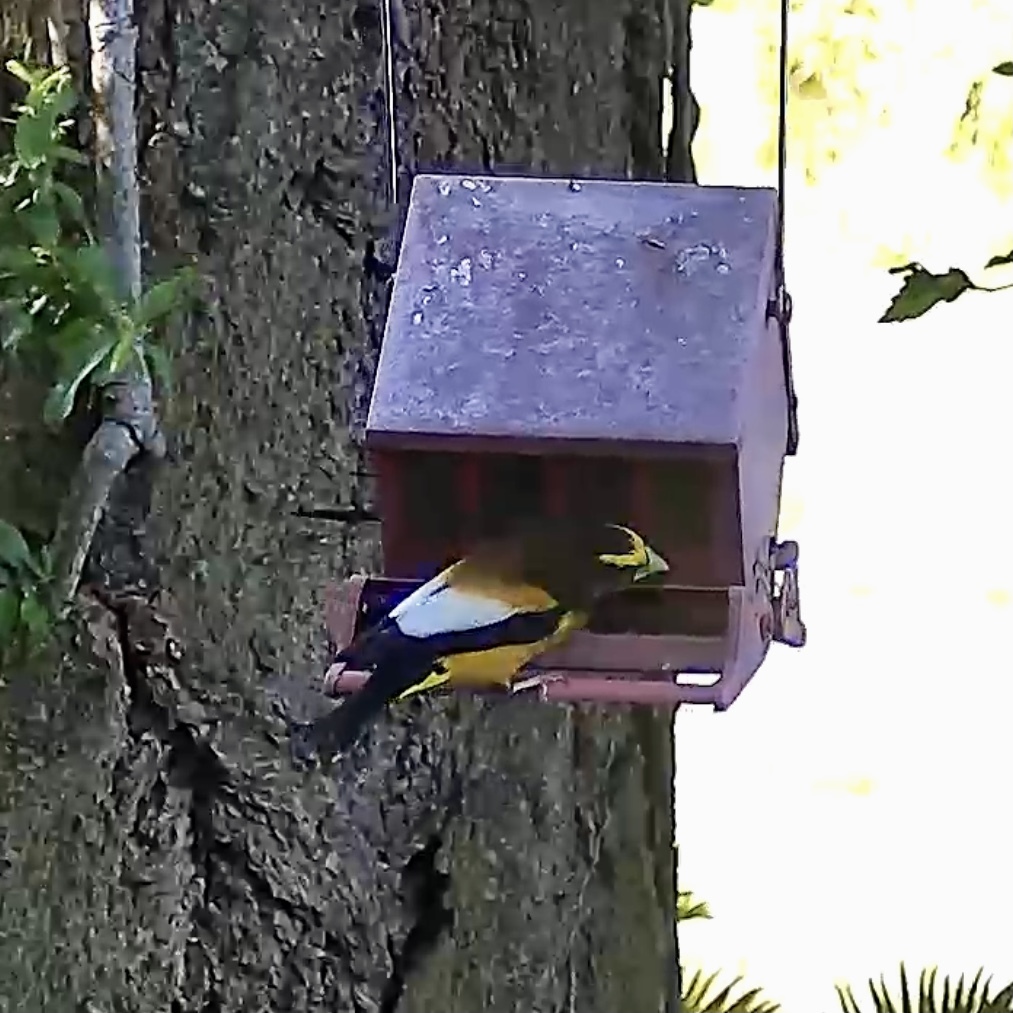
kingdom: Animalia
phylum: Chordata
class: Aves
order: Passeriformes
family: Fringillidae
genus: Hesperiphona
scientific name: Hesperiphona vespertina
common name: Evening grosbeak
